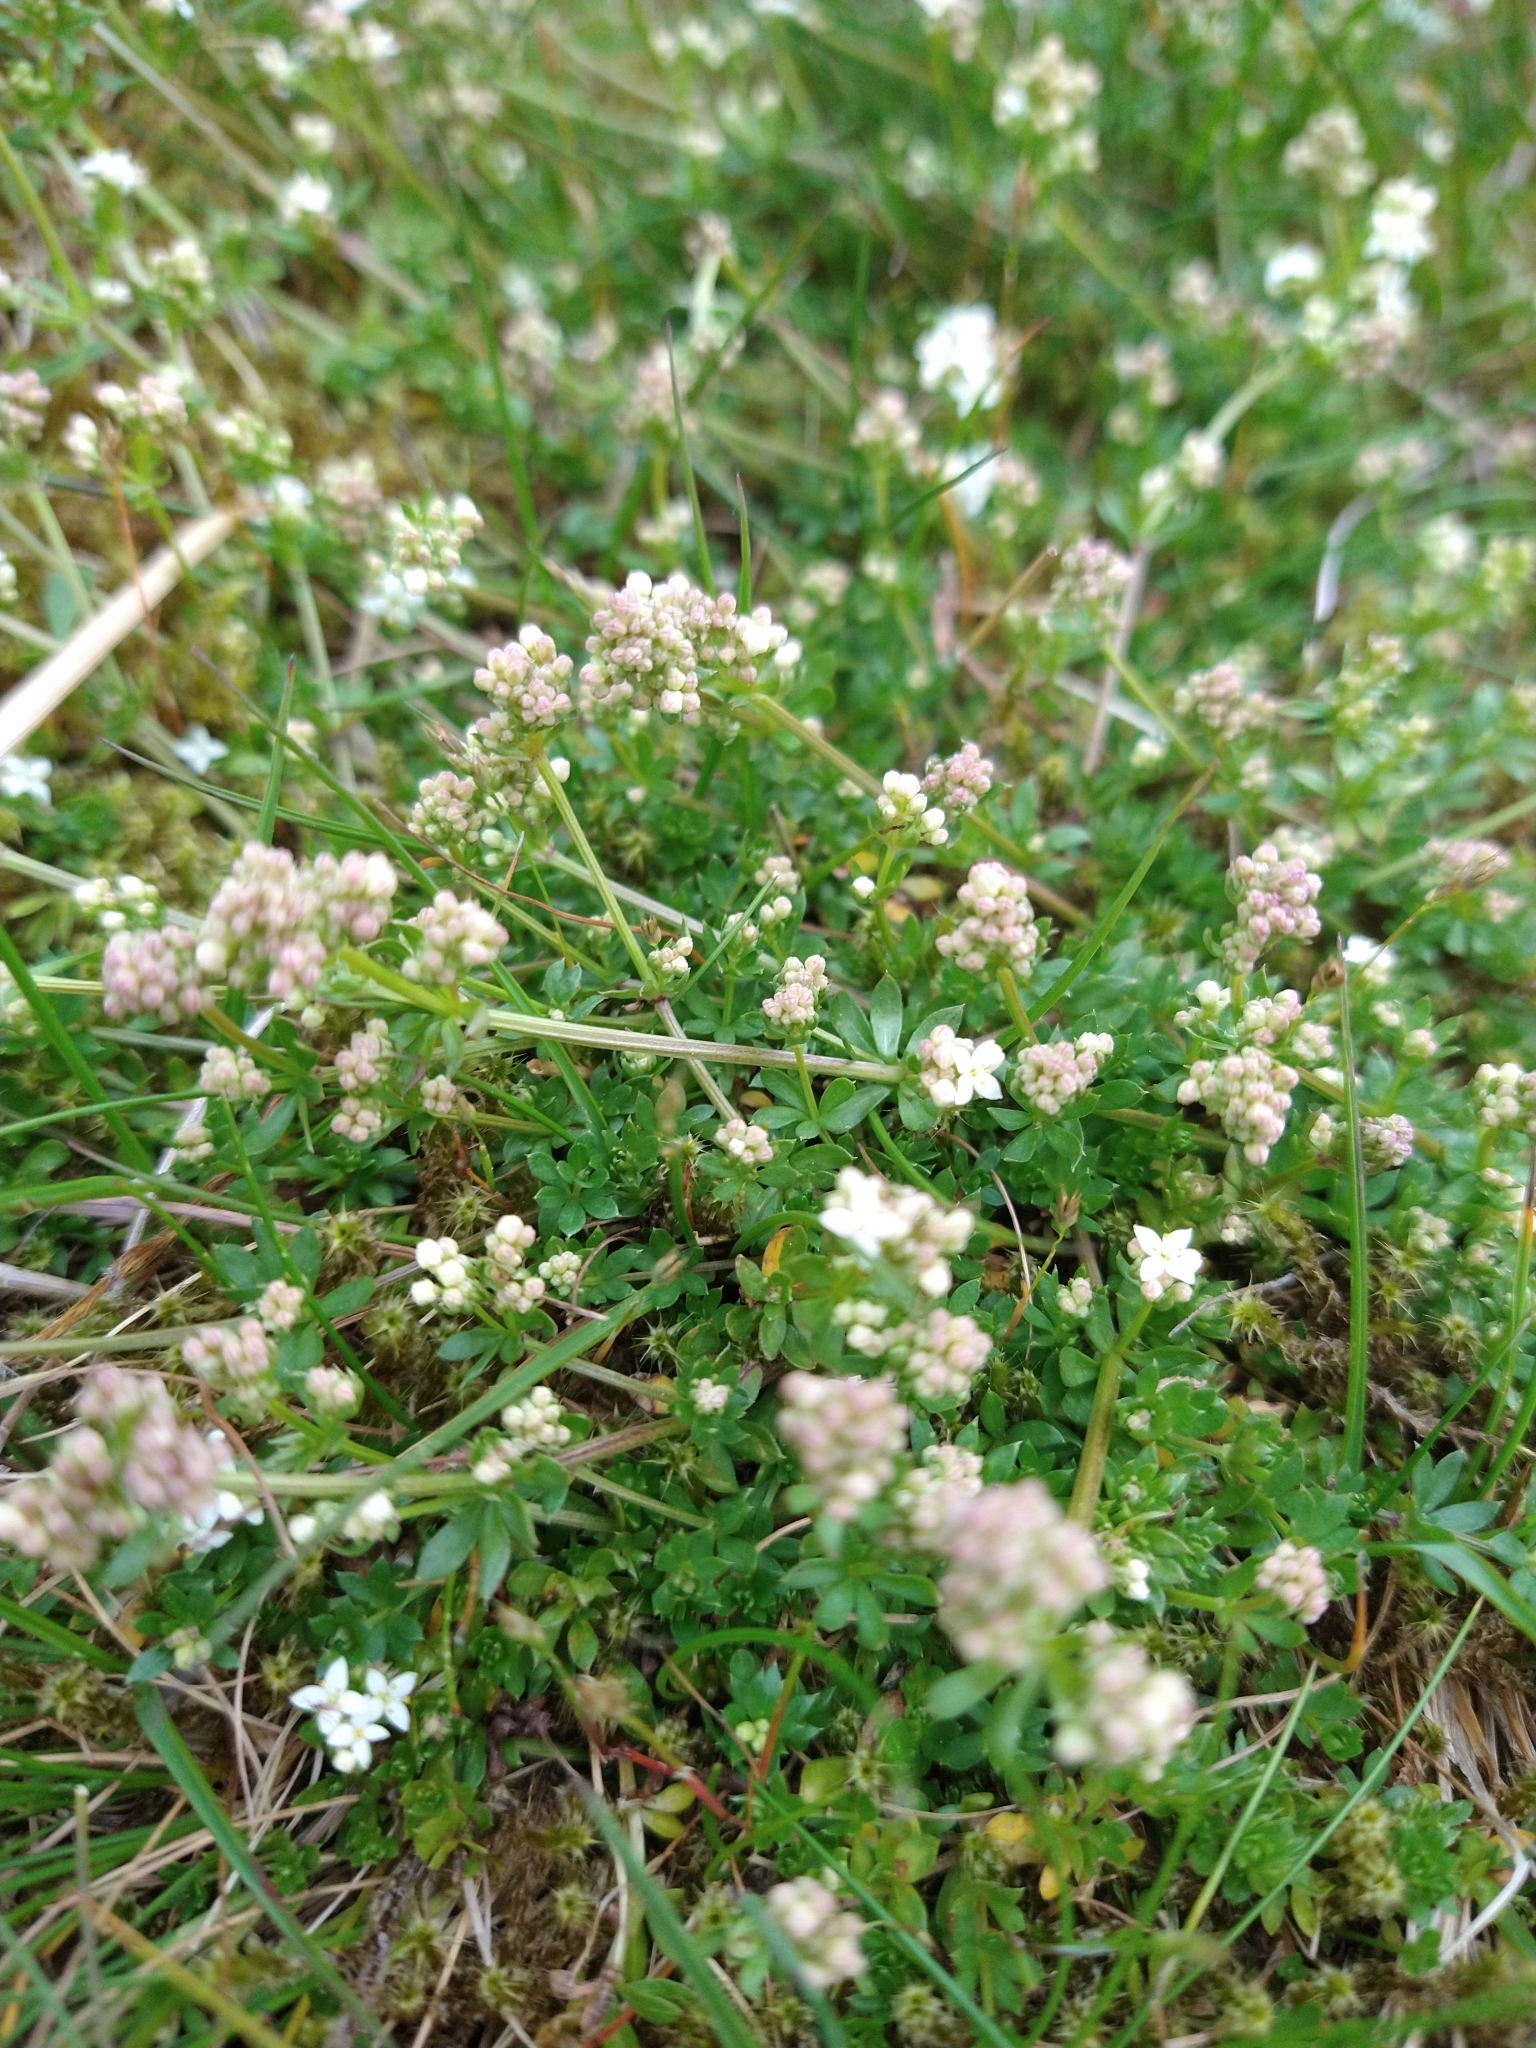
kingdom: Plantae
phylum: Tracheophyta
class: Magnoliopsida
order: Gentianales
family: Rubiaceae
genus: Galium
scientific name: Galium saxatile
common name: Heath bedstraw
